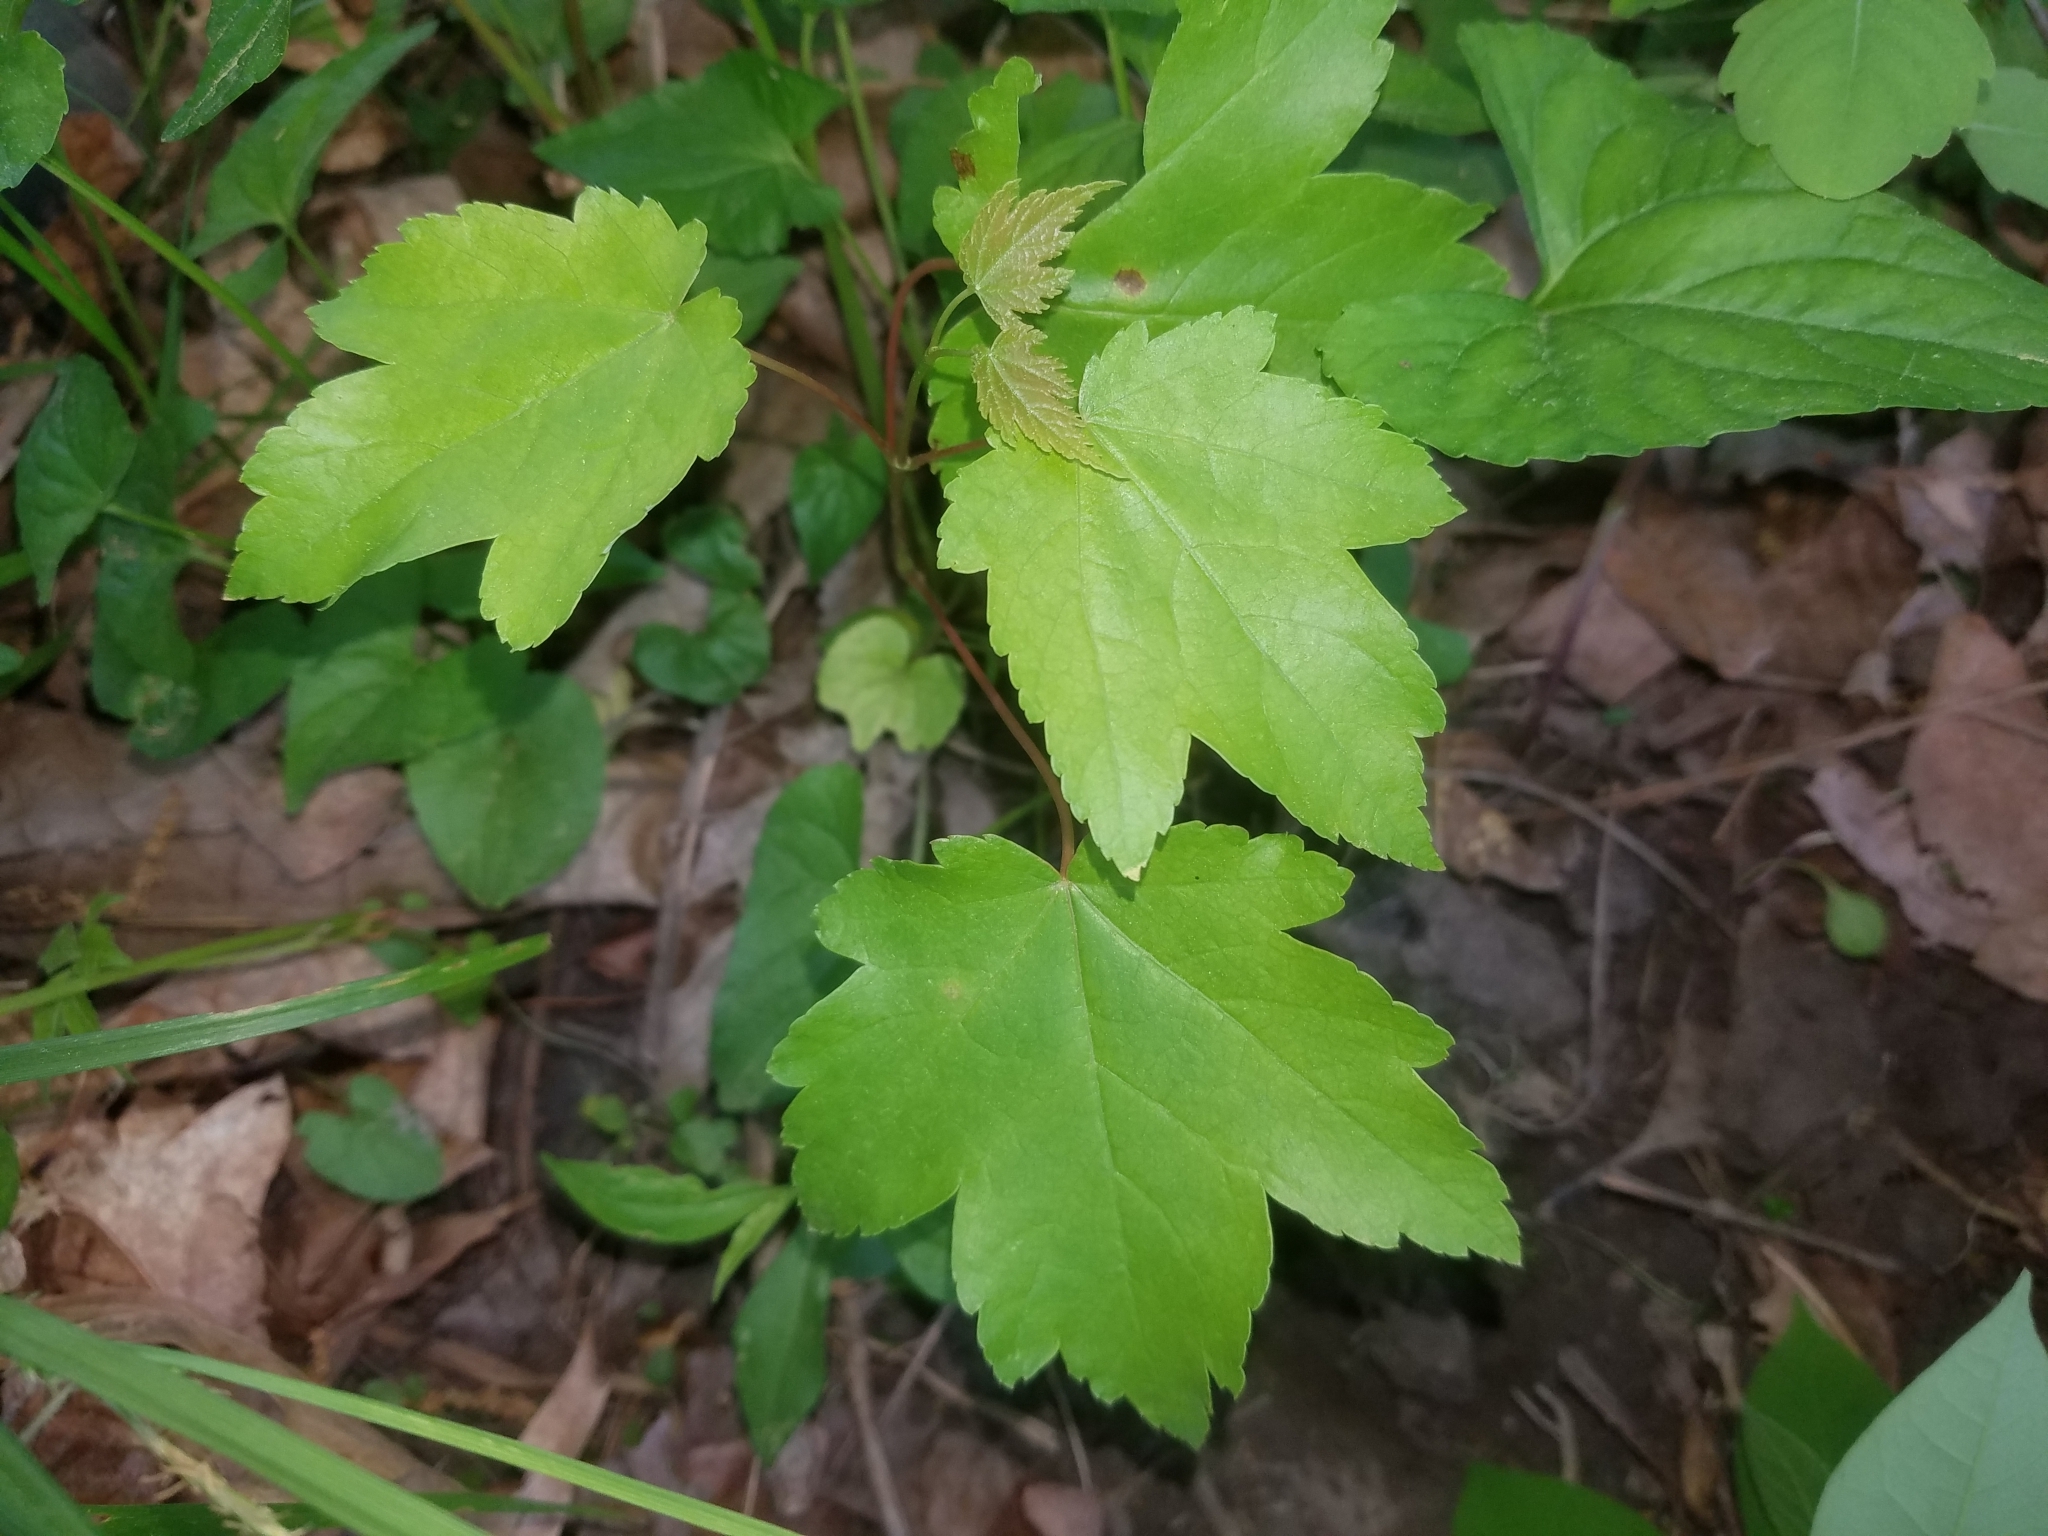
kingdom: Plantae
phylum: Tracheophyta
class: Magnoliopsida
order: Sapindales
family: Sapindaceae
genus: Acer
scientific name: Acer rubrum
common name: Red maple
